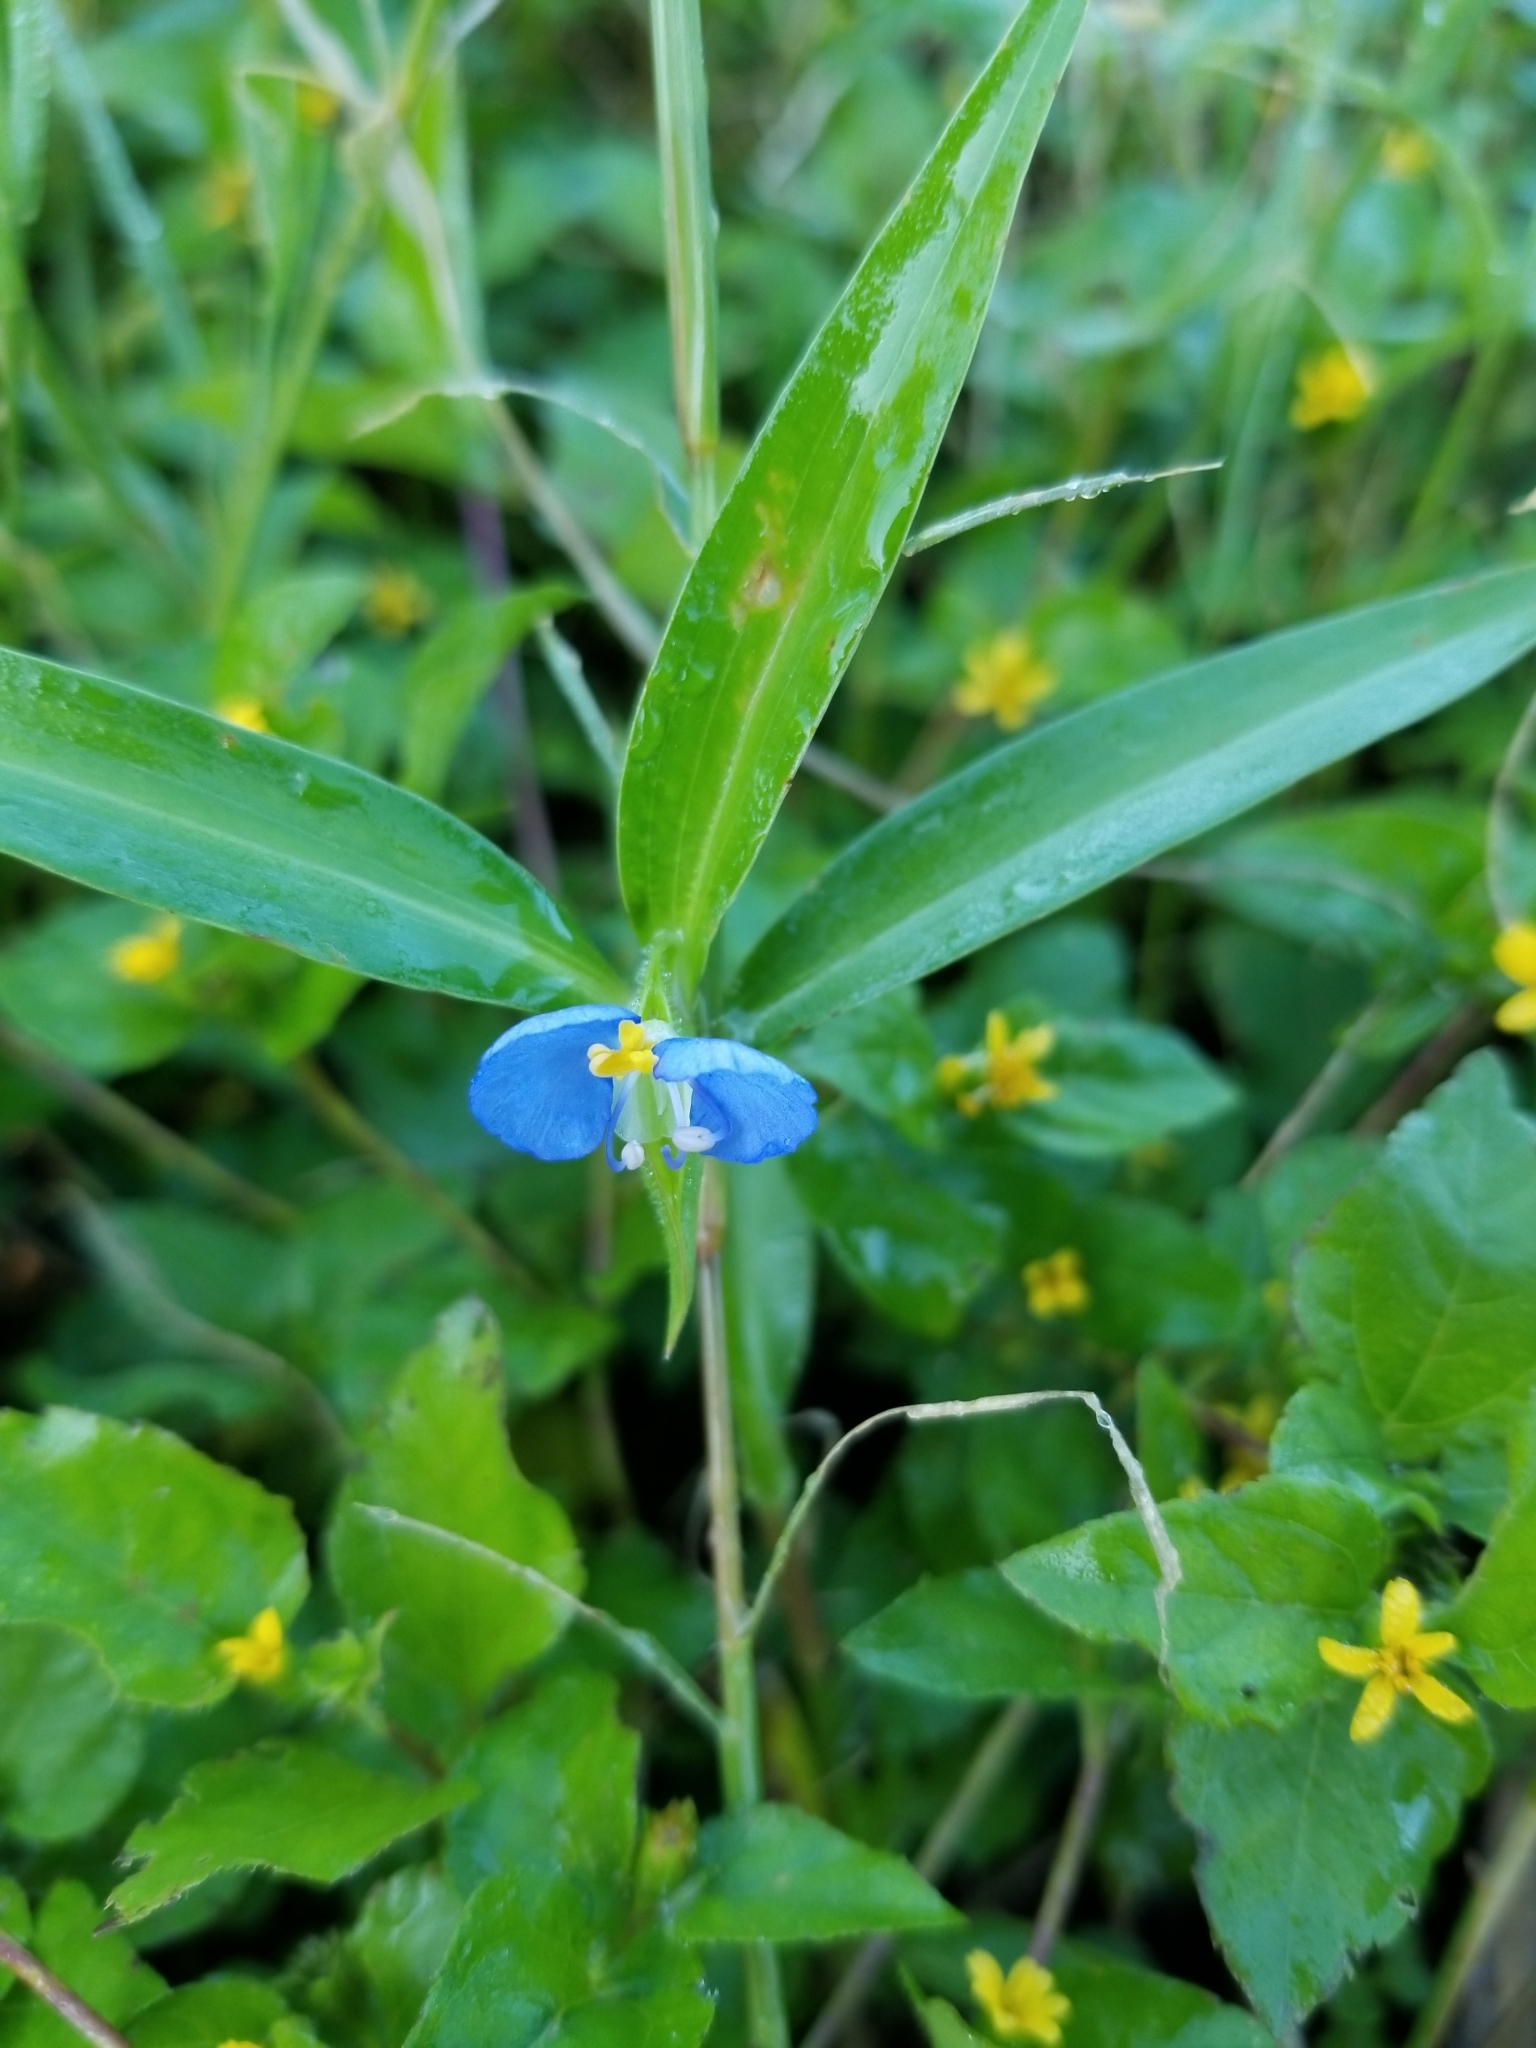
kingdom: Plantae
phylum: Tracheophyta
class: Liliopsida
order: Commelinales
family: Commelinaceae
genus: Commelina
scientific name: Commelina erecta
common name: Blousel blommetjie
